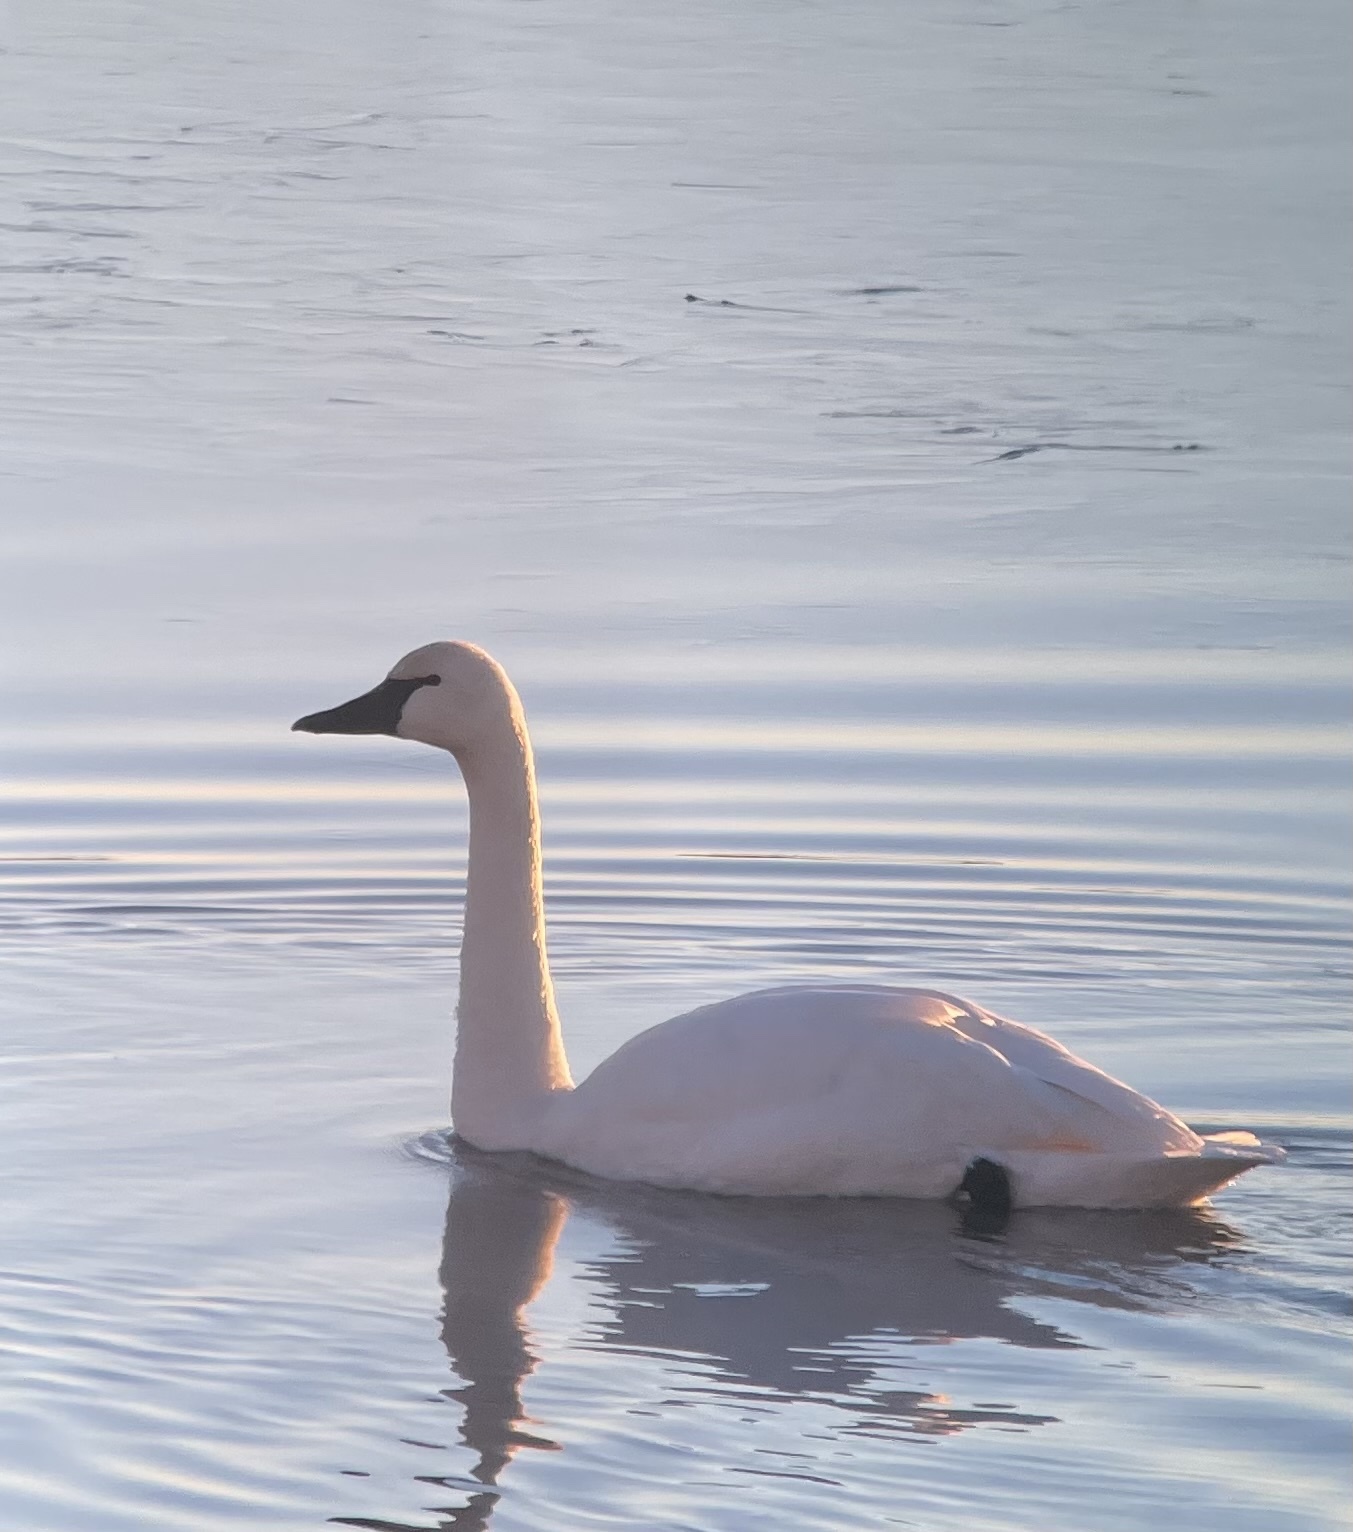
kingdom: Animalia
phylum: Chordata
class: Aves
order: Anseriformes
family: Anatidae
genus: Cygnus
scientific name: Cygnus columbianus
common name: Tundra swan
